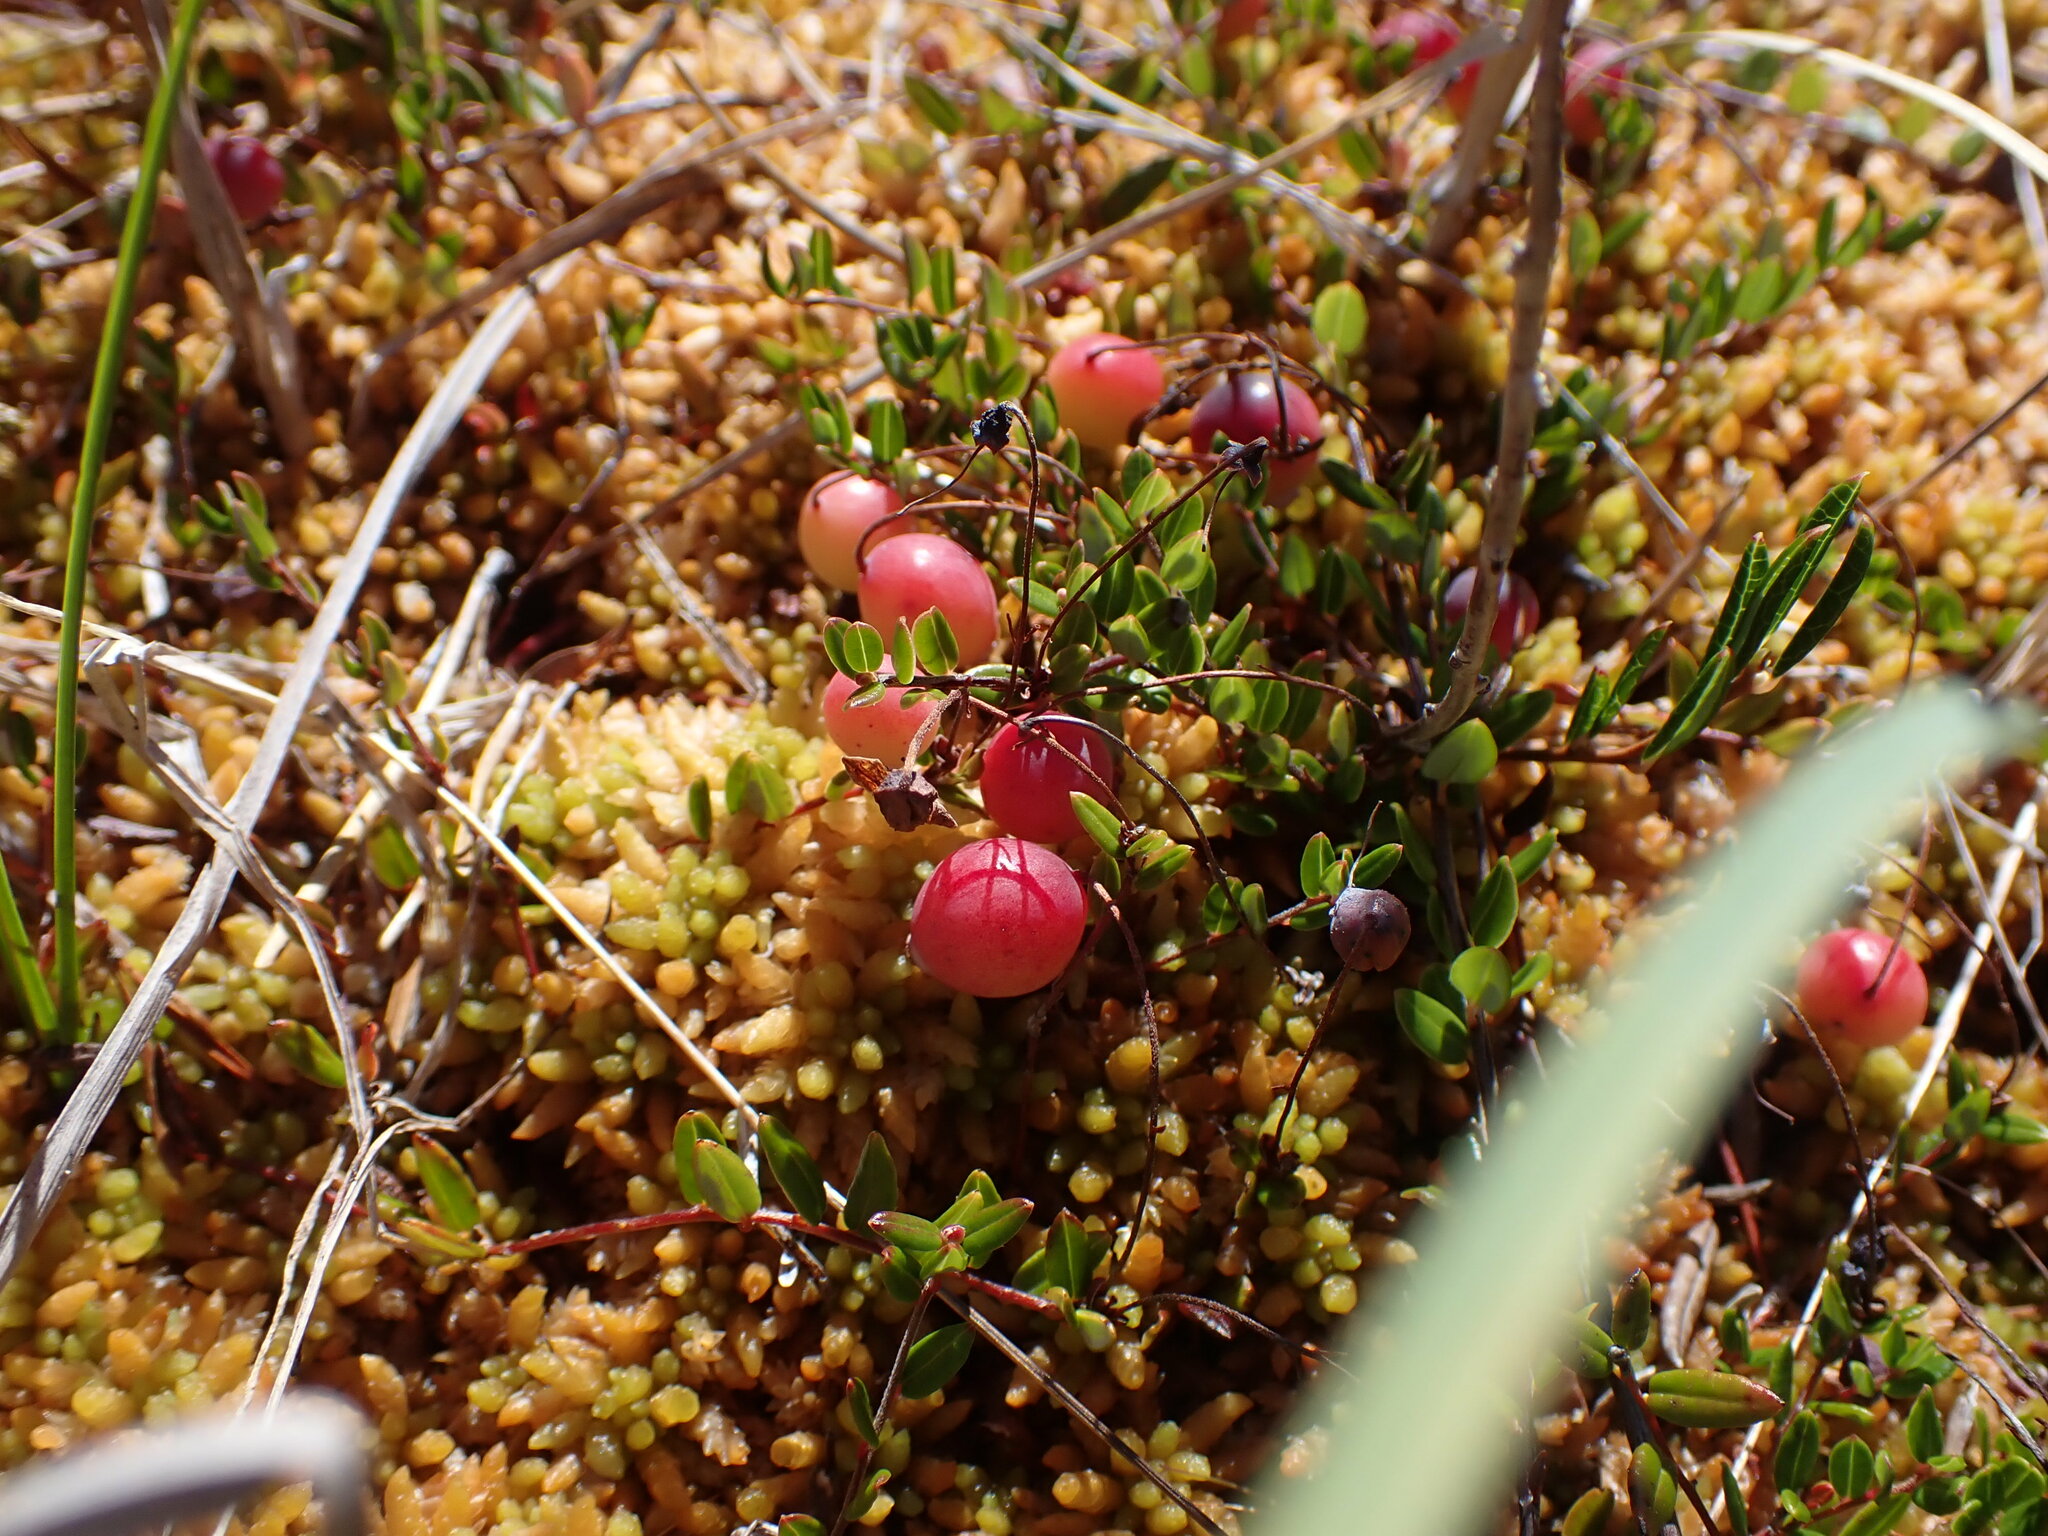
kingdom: Plantae
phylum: Tracheophyta
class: Magnoliopsida
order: Ericales
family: Ericaceae
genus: Vaccinium
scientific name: Vaccinium oxycoccos
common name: Cranberry
